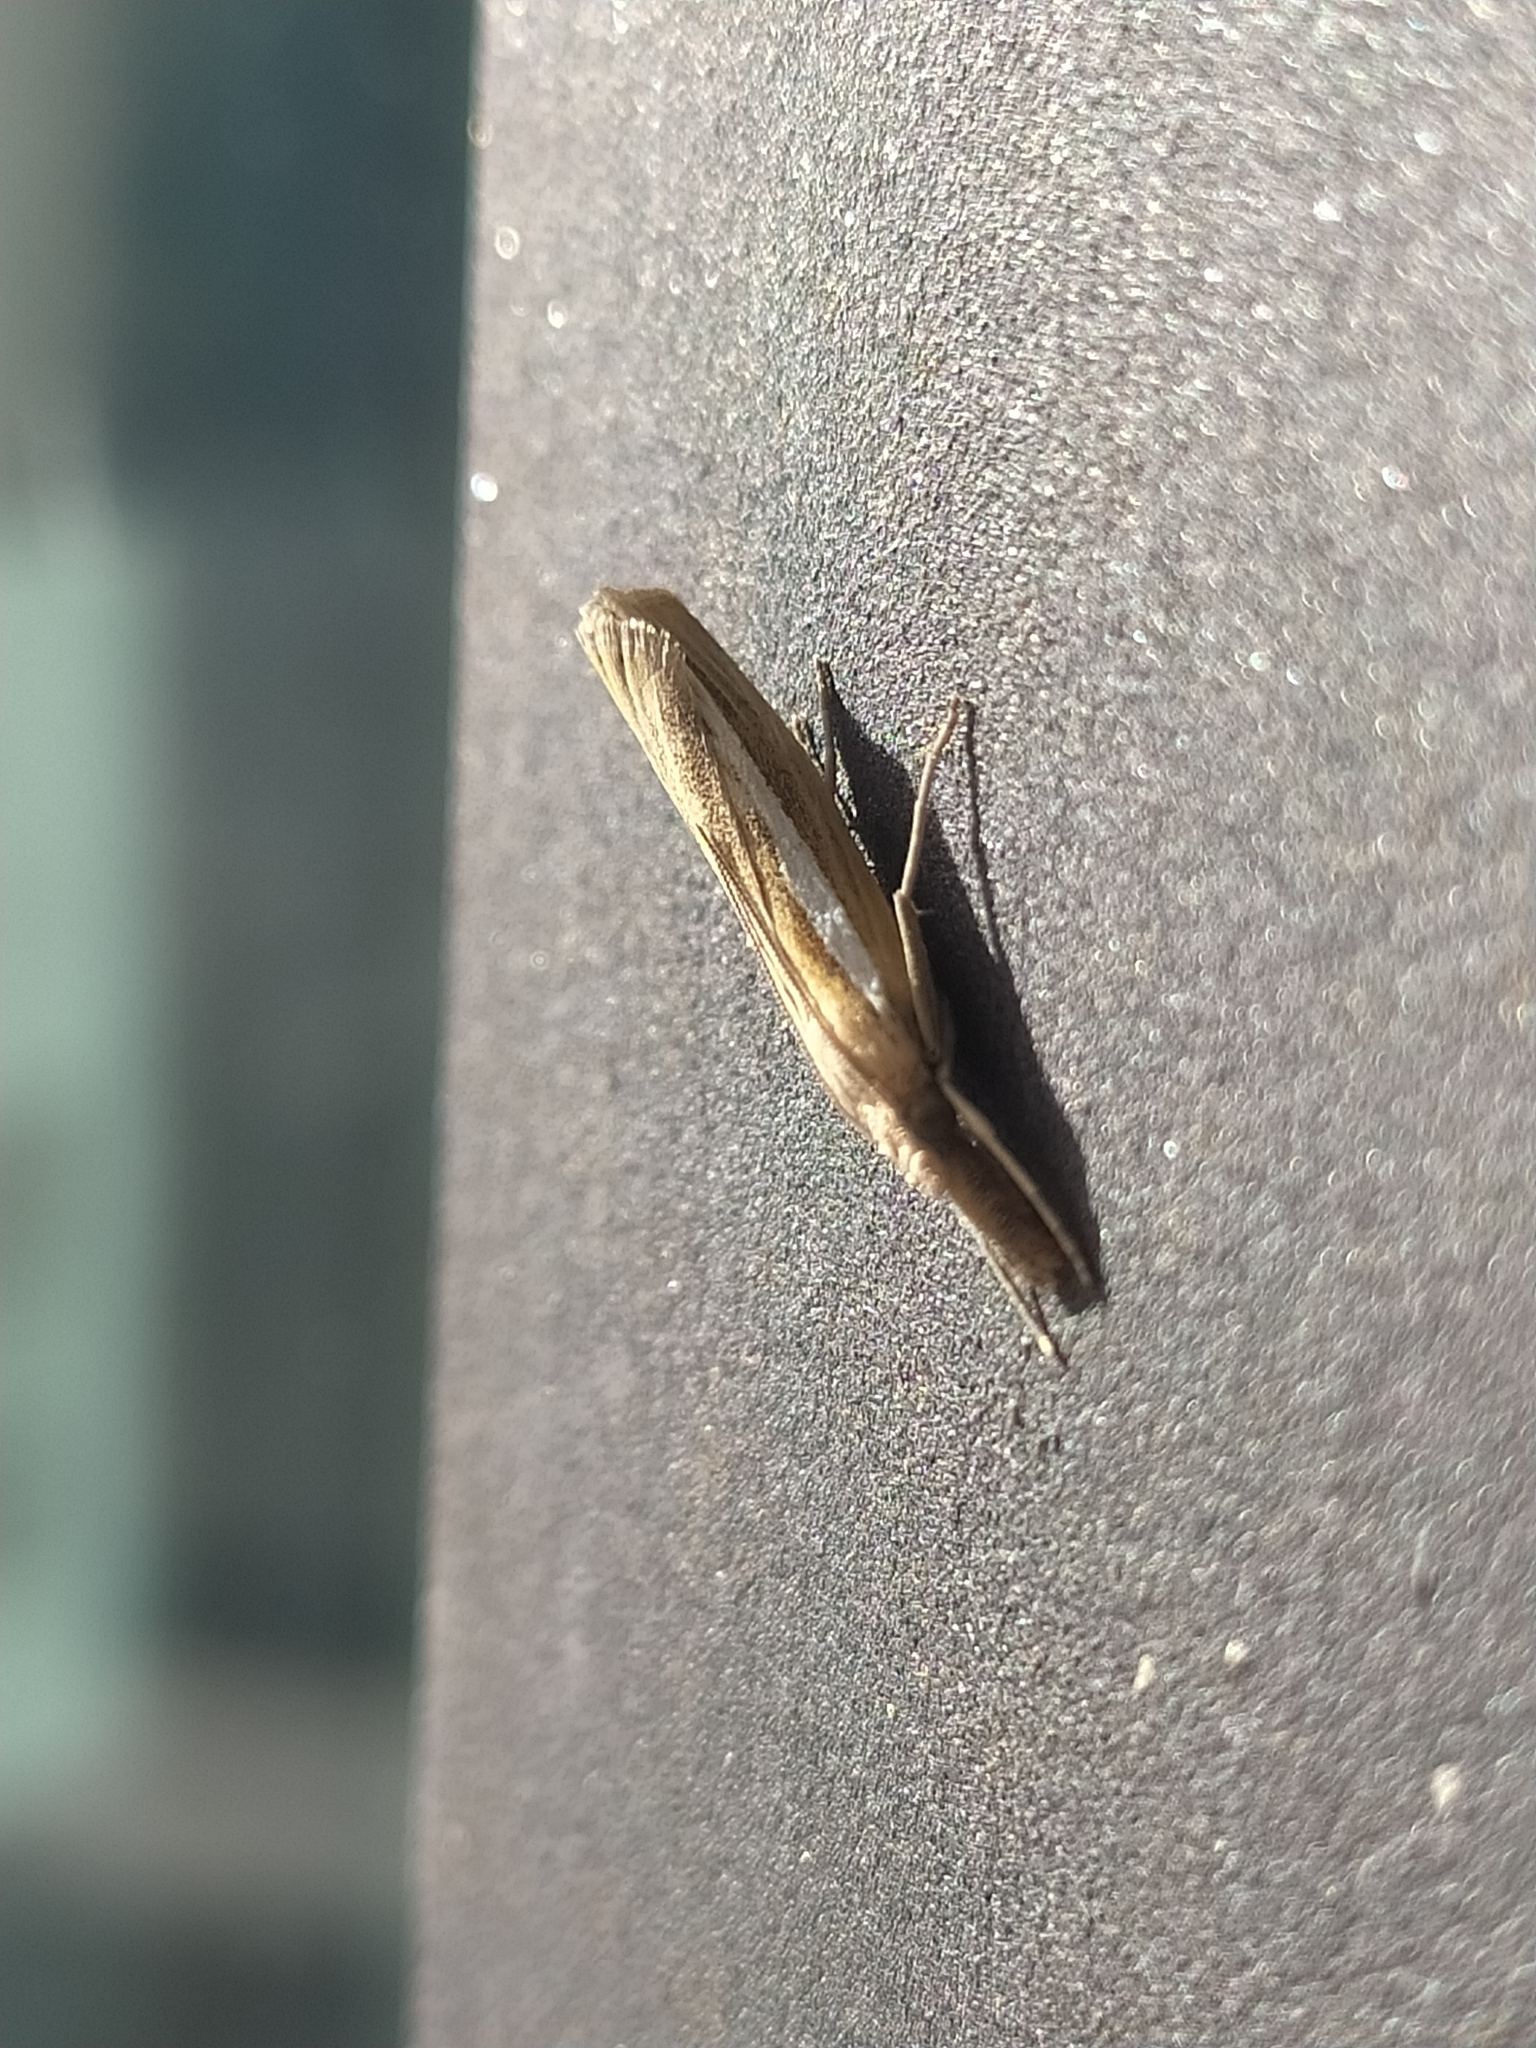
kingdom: Animalia
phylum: Arthropoda
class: Insecta
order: Lepidoptera
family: Crambidae
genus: Agriphila
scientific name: Agriphila tristellus
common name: Common grass-veneer
